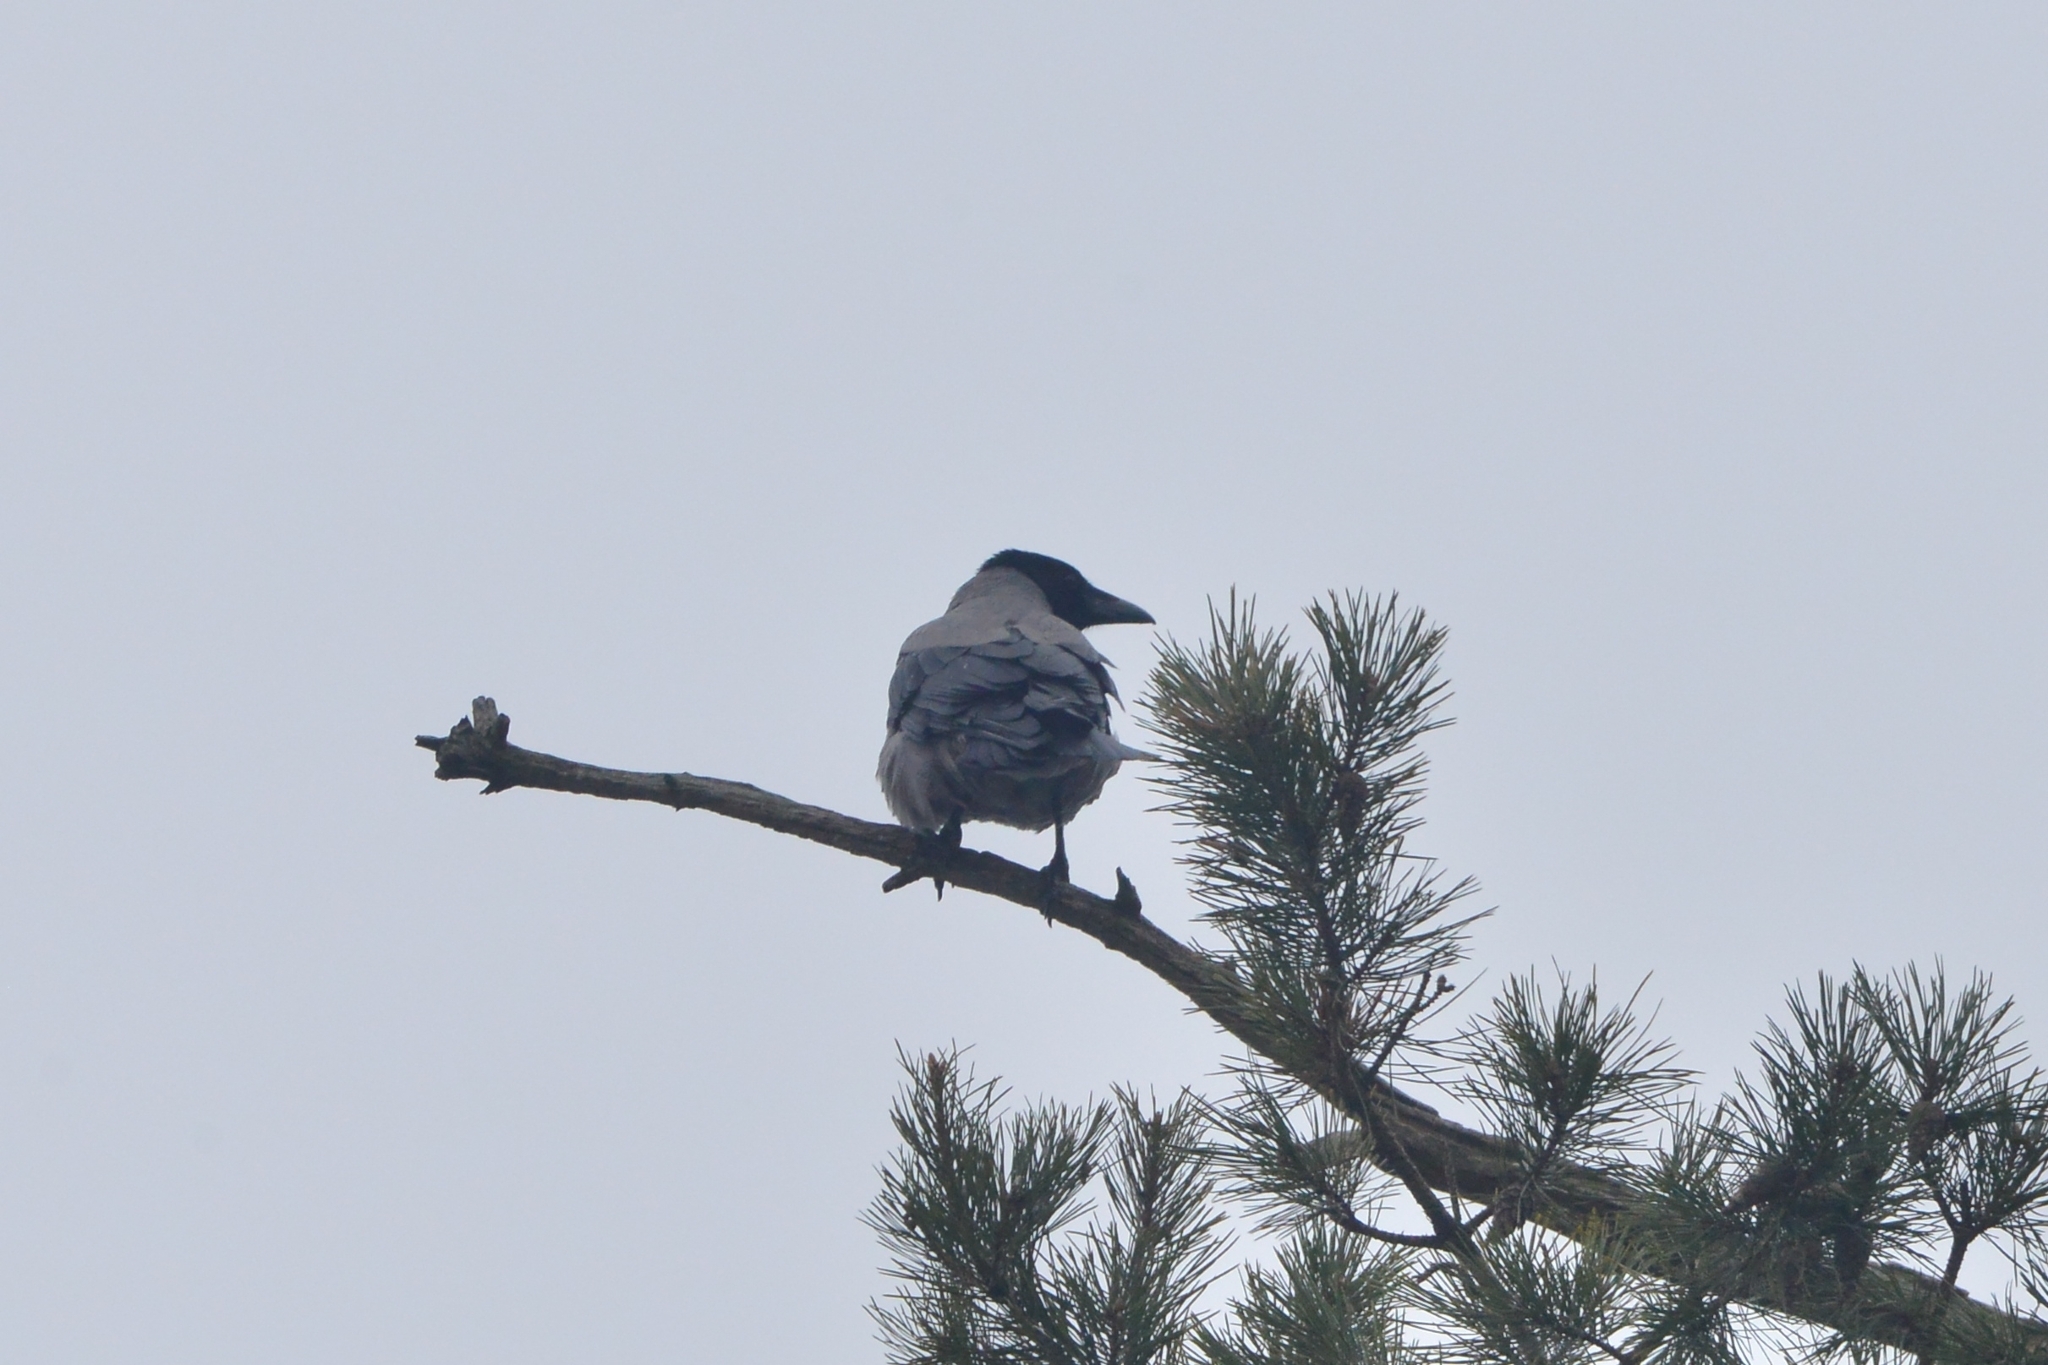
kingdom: Animalia
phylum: Chordata
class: Aves
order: Passeriformes
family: Corvidae
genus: Corvus
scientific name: Corvus cornix
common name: Hooded crow
